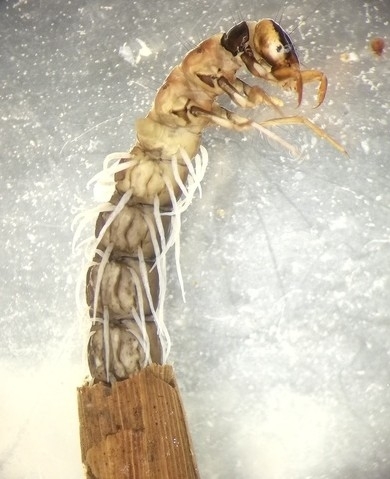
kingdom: Animalia
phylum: Arthropoda
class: Insecta
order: Trichoptera
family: Phryganeidae
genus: Trichostegia
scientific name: Trichostegia minor
